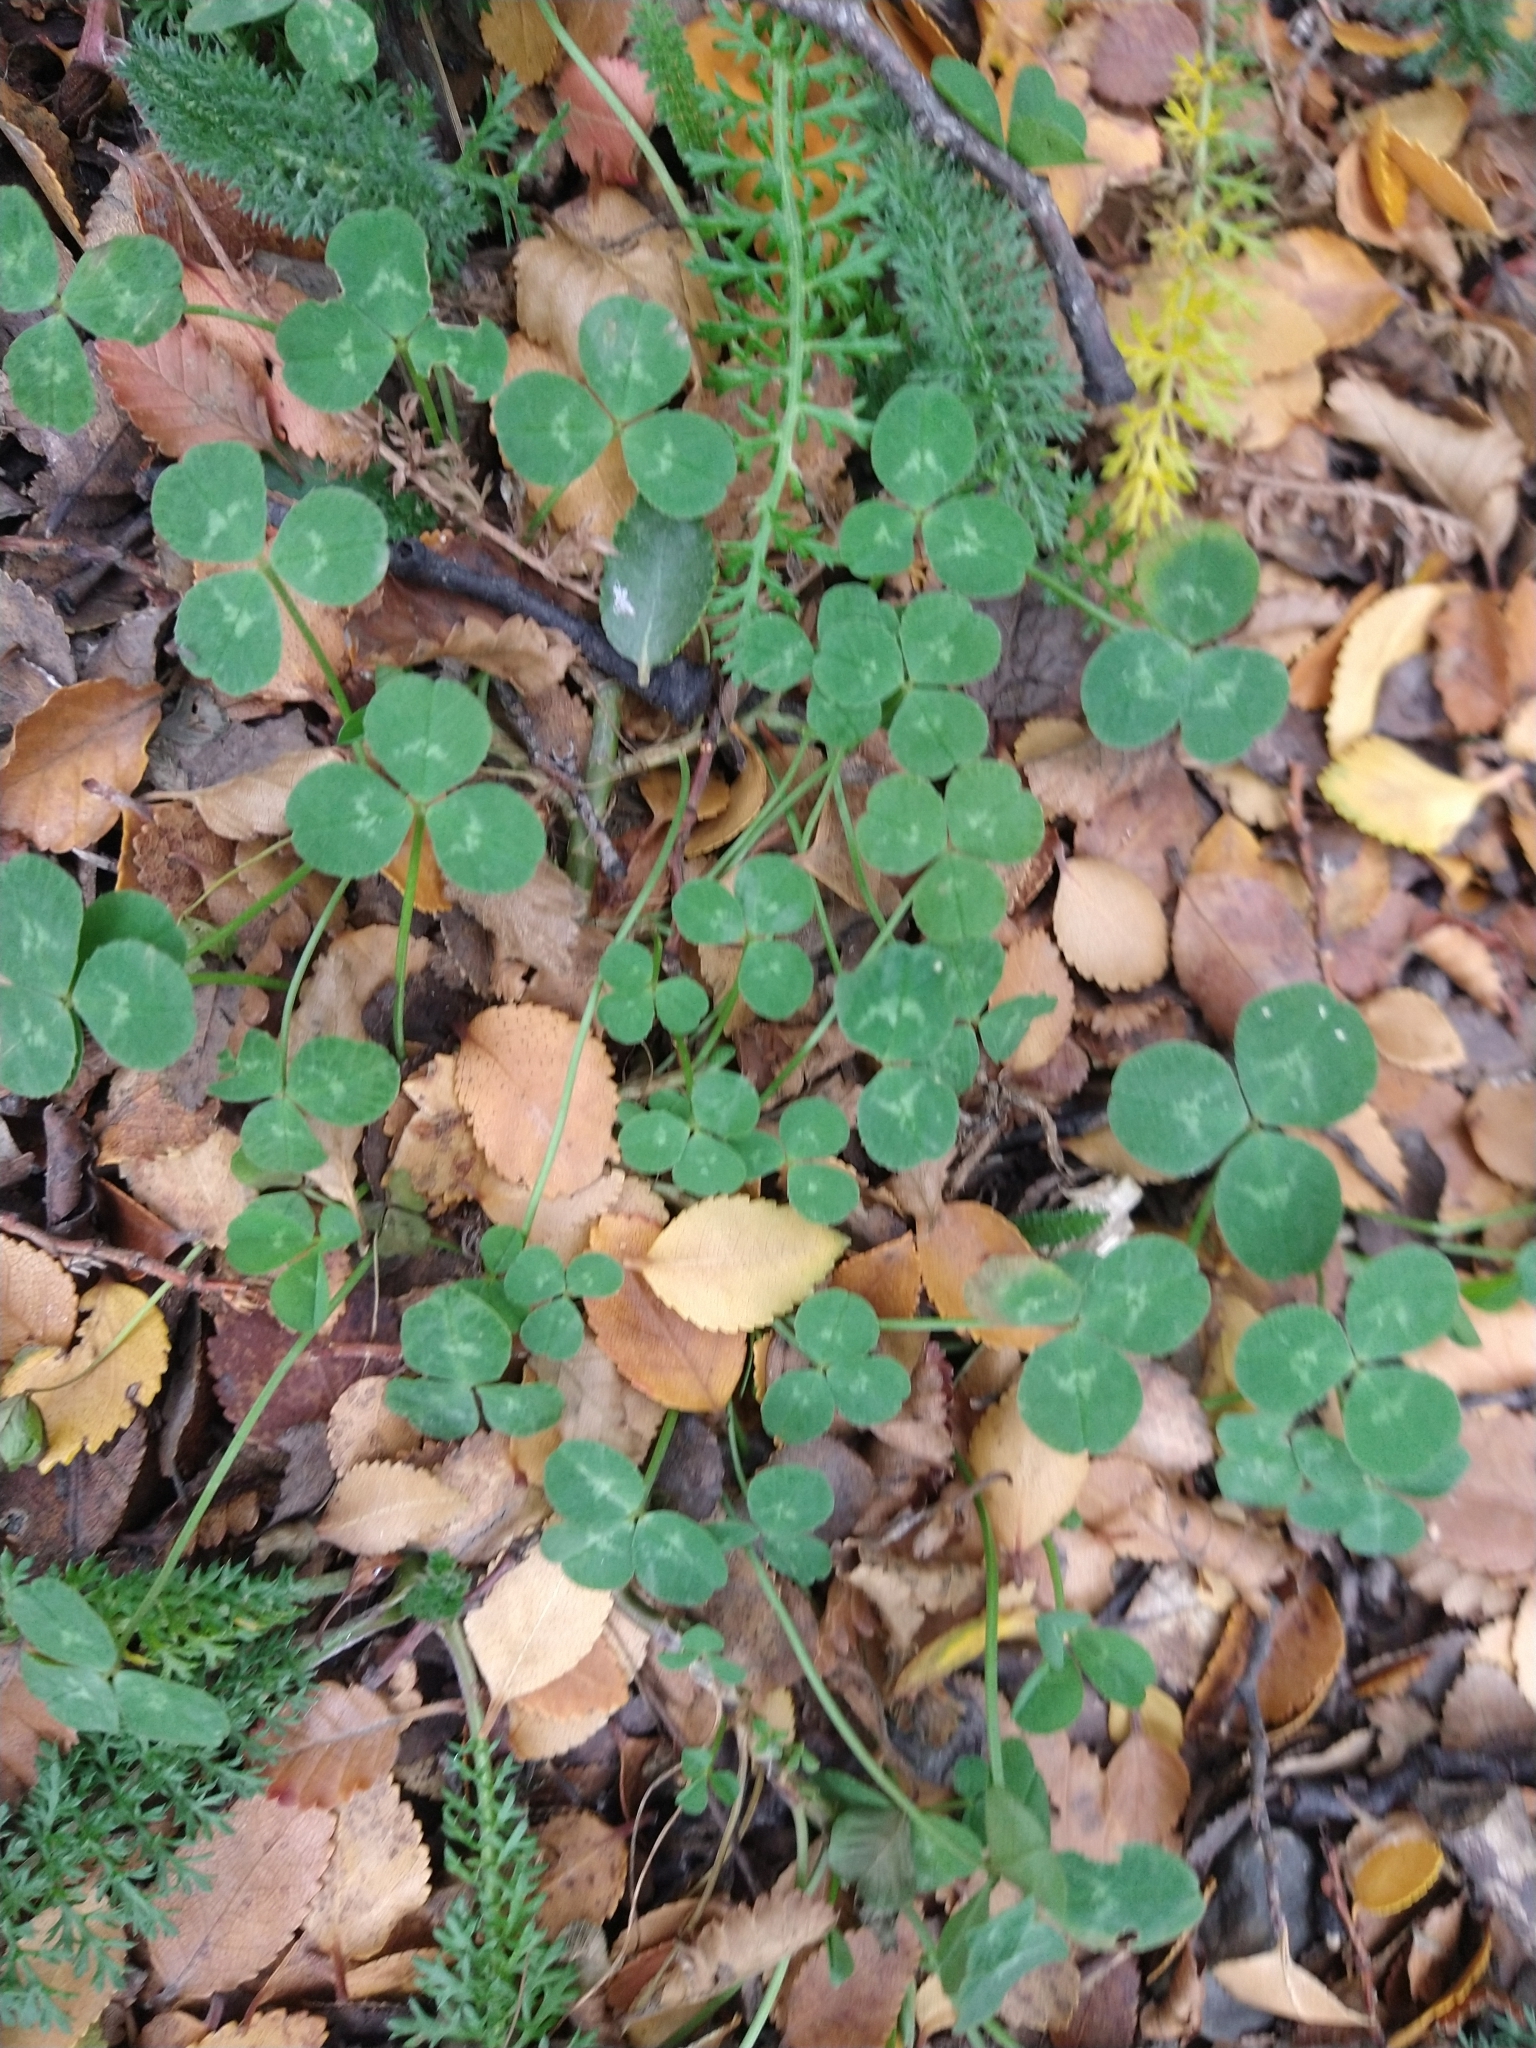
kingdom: Plantae
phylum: Tracheophyta
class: Magnoliopsida
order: Fabales
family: Fabaceae
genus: Trifolium
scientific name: Trifolium repens
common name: White clover
